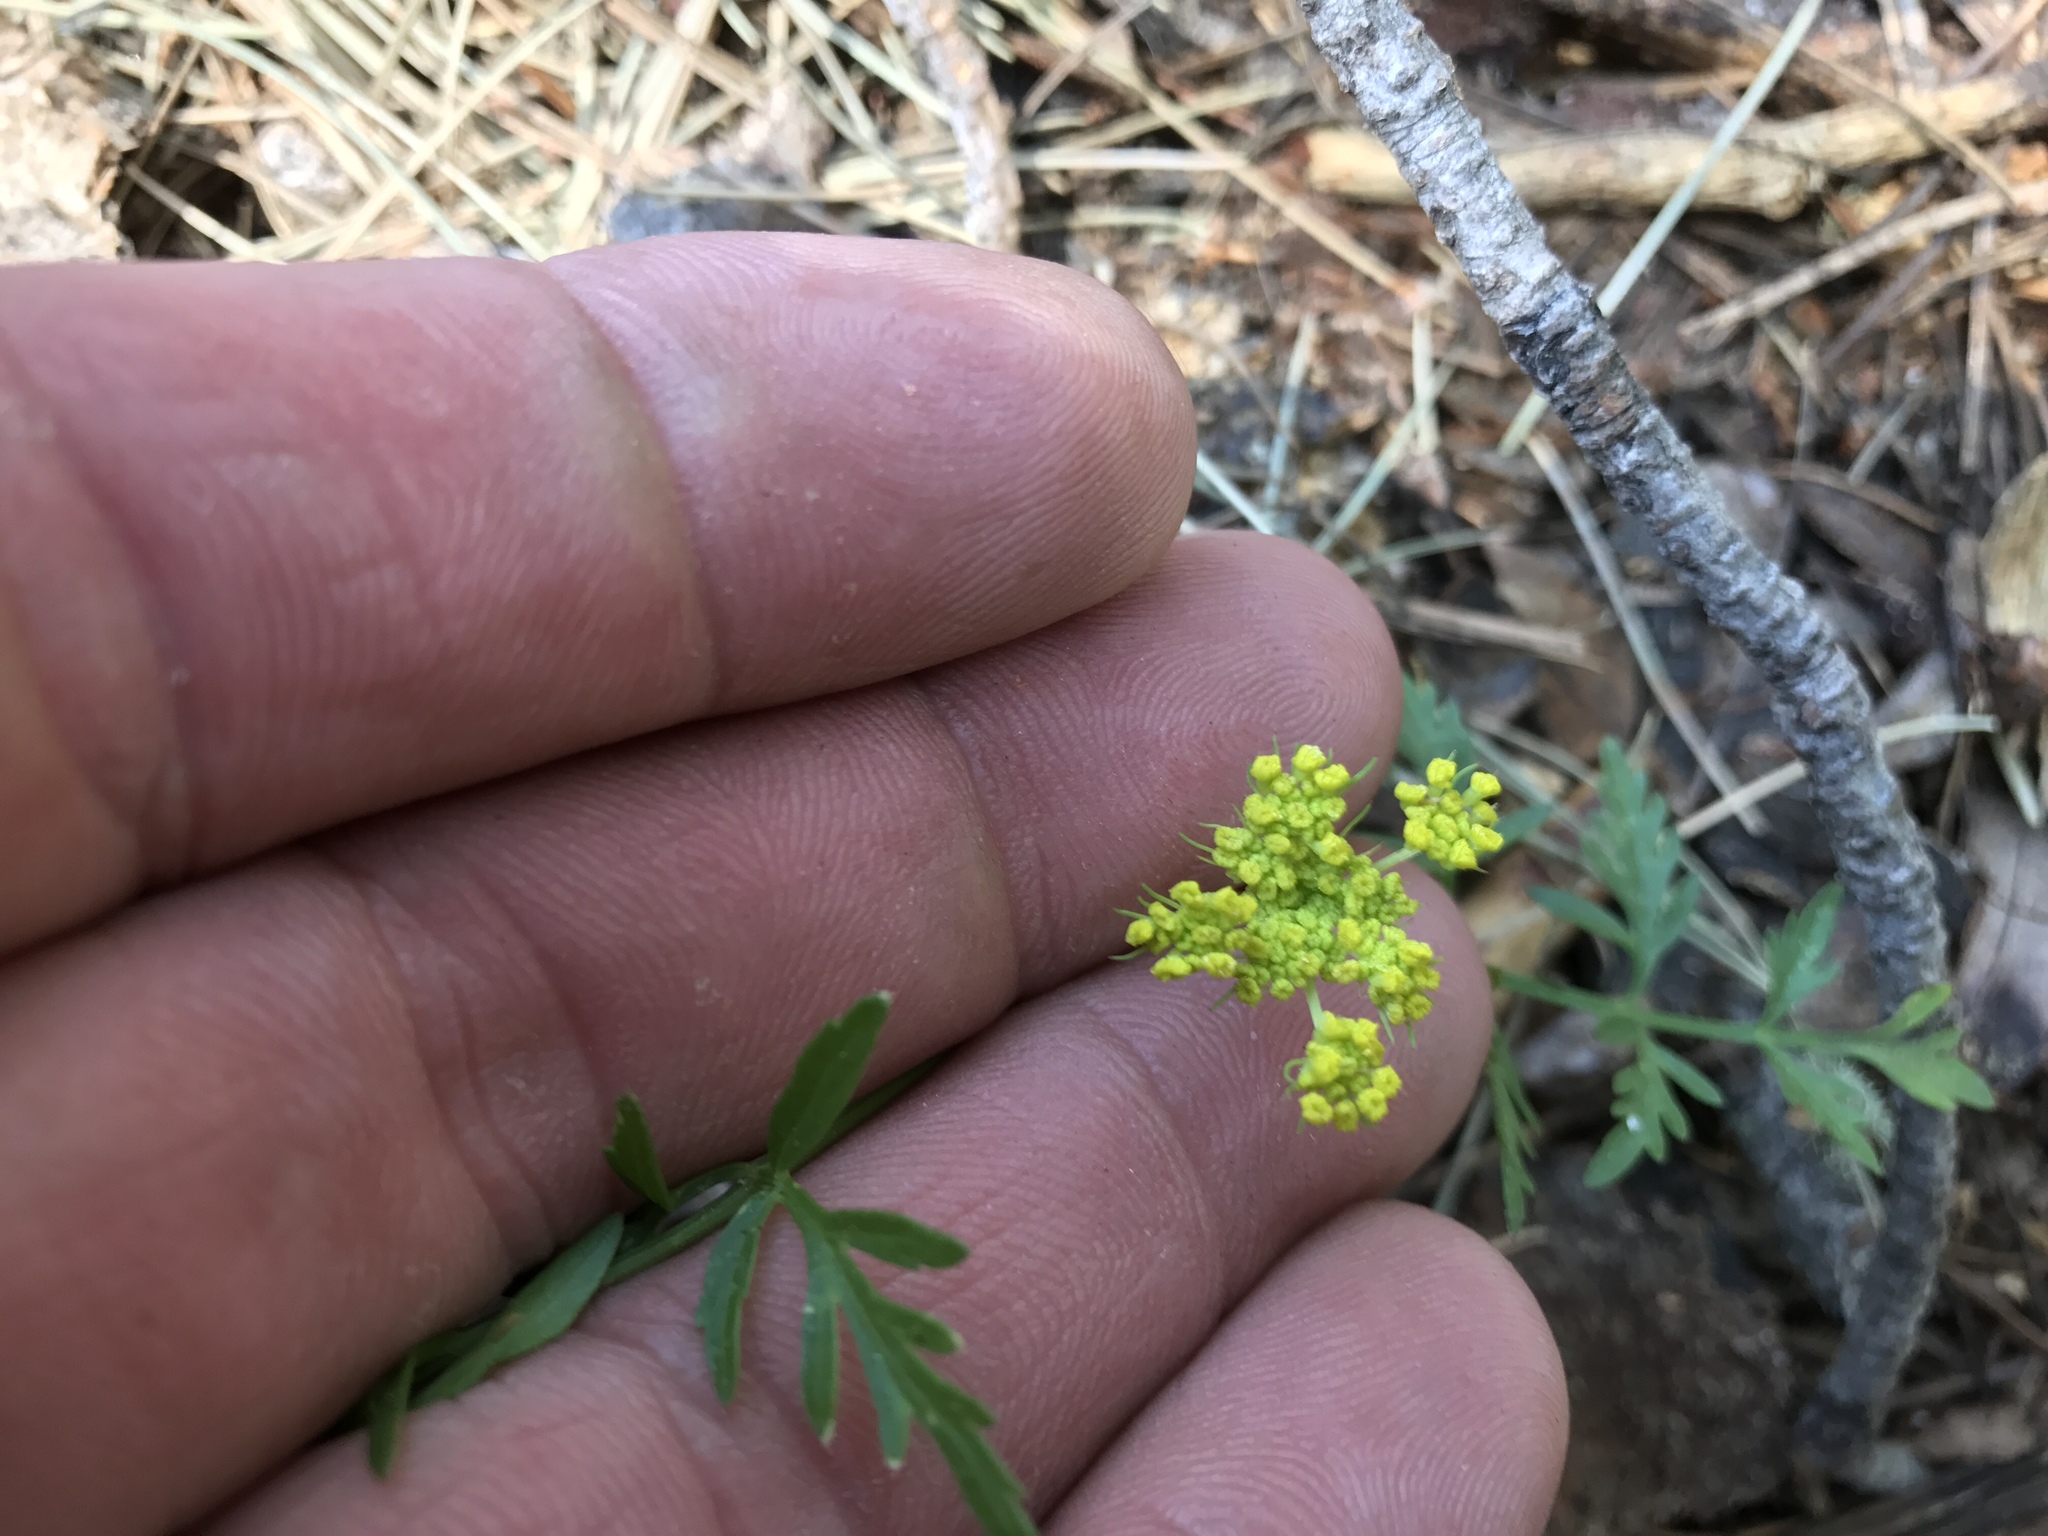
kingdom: Plantae
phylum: Tracheophyta
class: Magnoliopsida
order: Apiales
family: Apiaceae
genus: Cymopterus
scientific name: Cymopterus lemmonii
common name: Lemmon's spring-parsley
